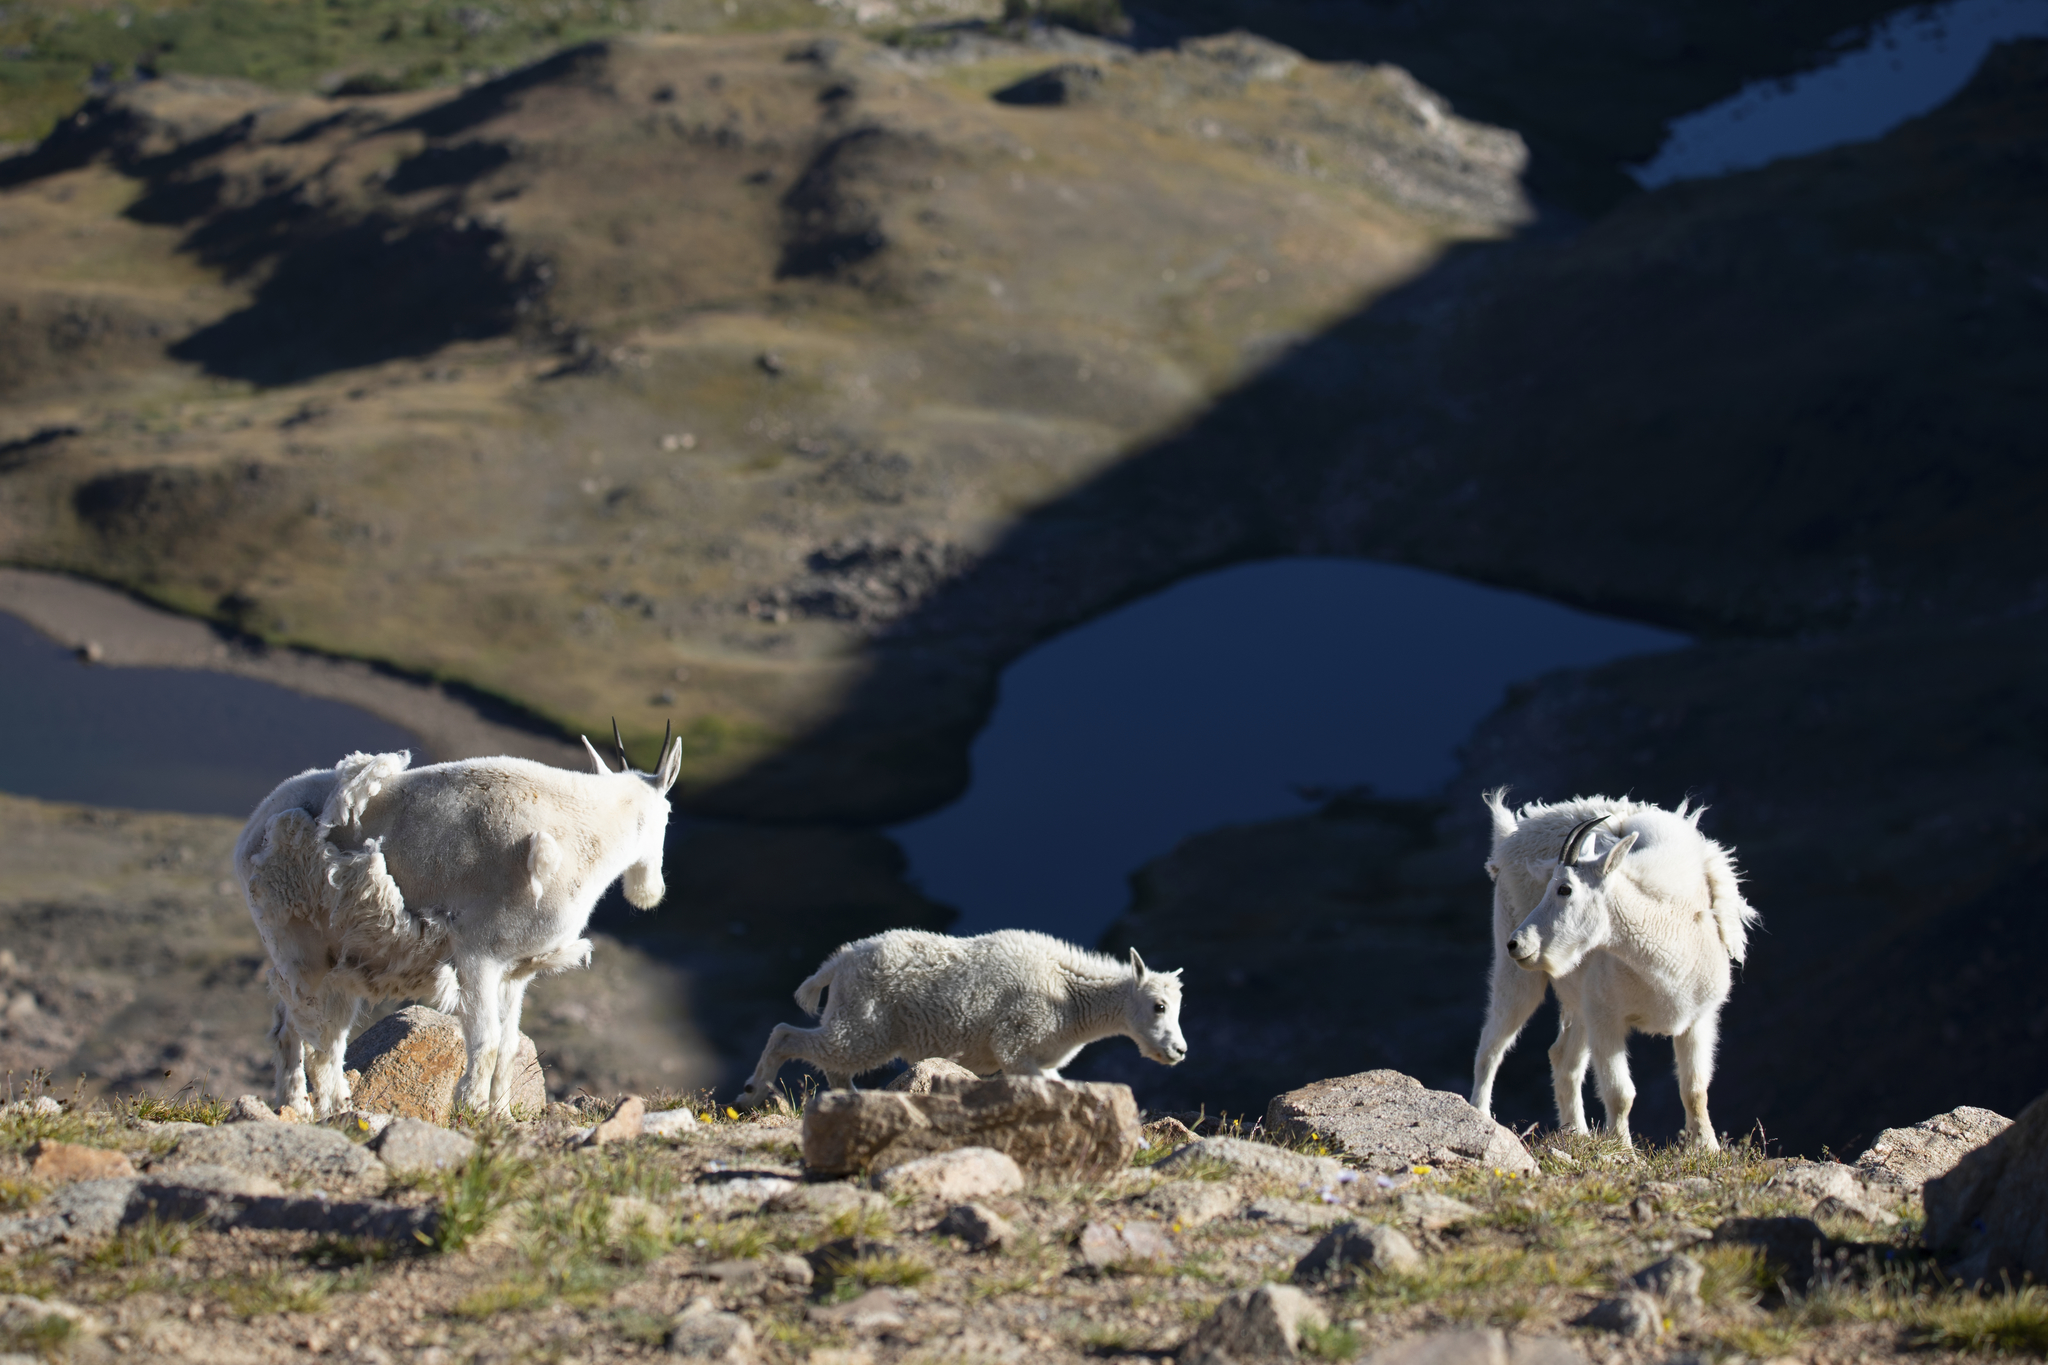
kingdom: Animalia
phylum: Chordata
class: Mammalia
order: Artiodactyla
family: Bovidae
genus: Oreamnos
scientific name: Oreamnos americanus
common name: Mountain goat
